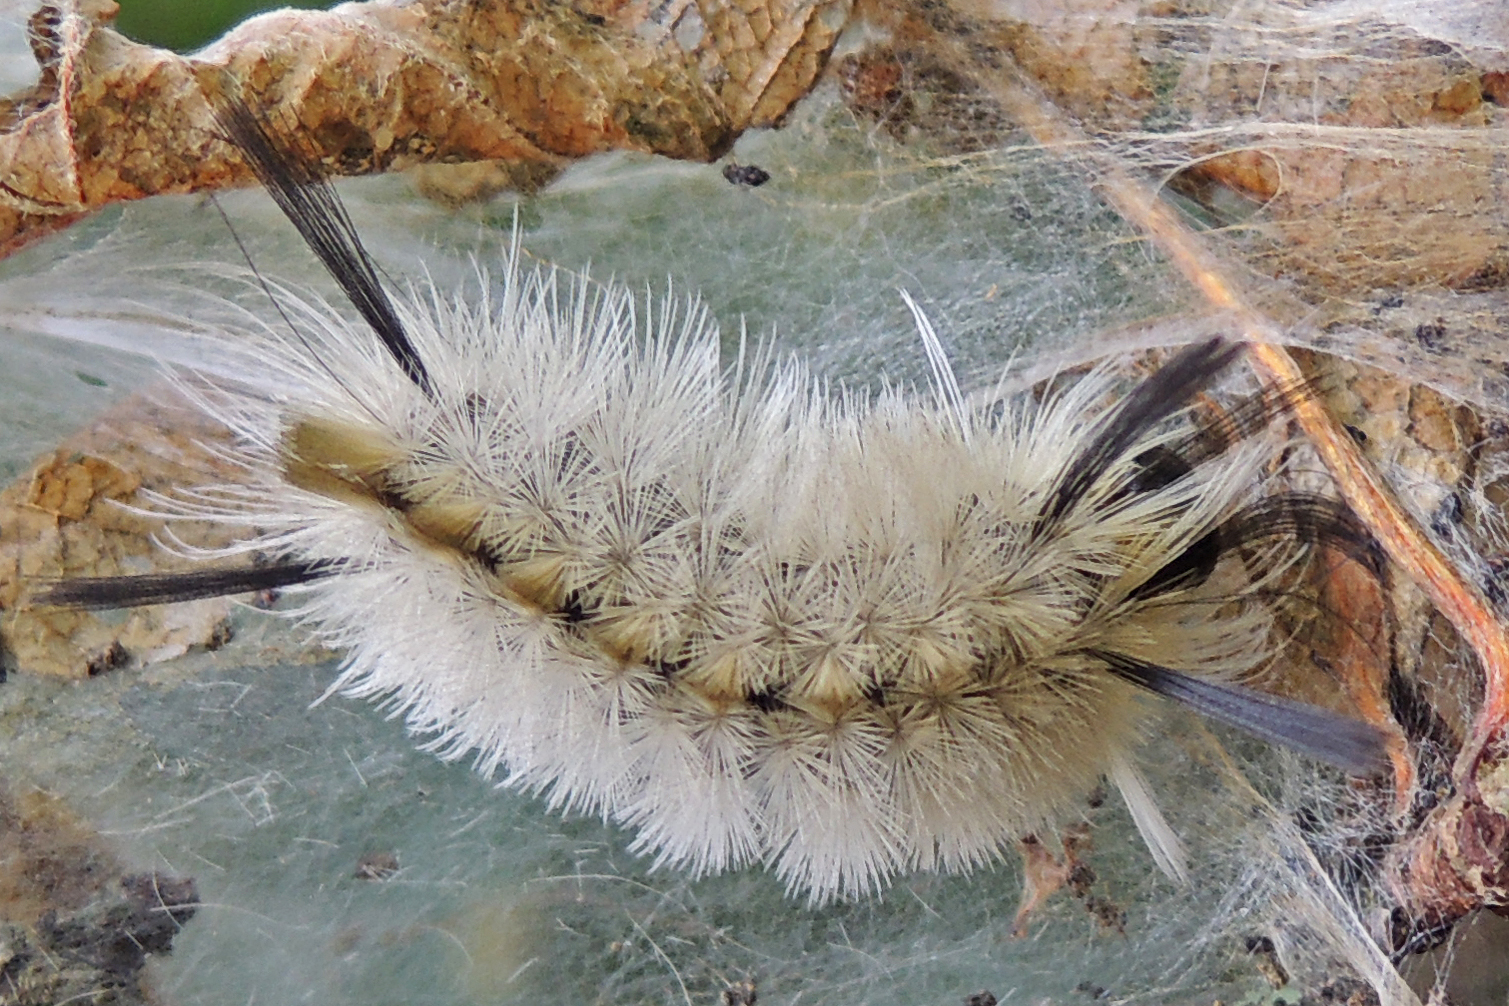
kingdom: Animalia
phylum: Arthropoda
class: Insecta
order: Lepidoptera
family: Erebidae
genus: Halysidota
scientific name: Halysidota tessellaris
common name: Banded tussock moth
